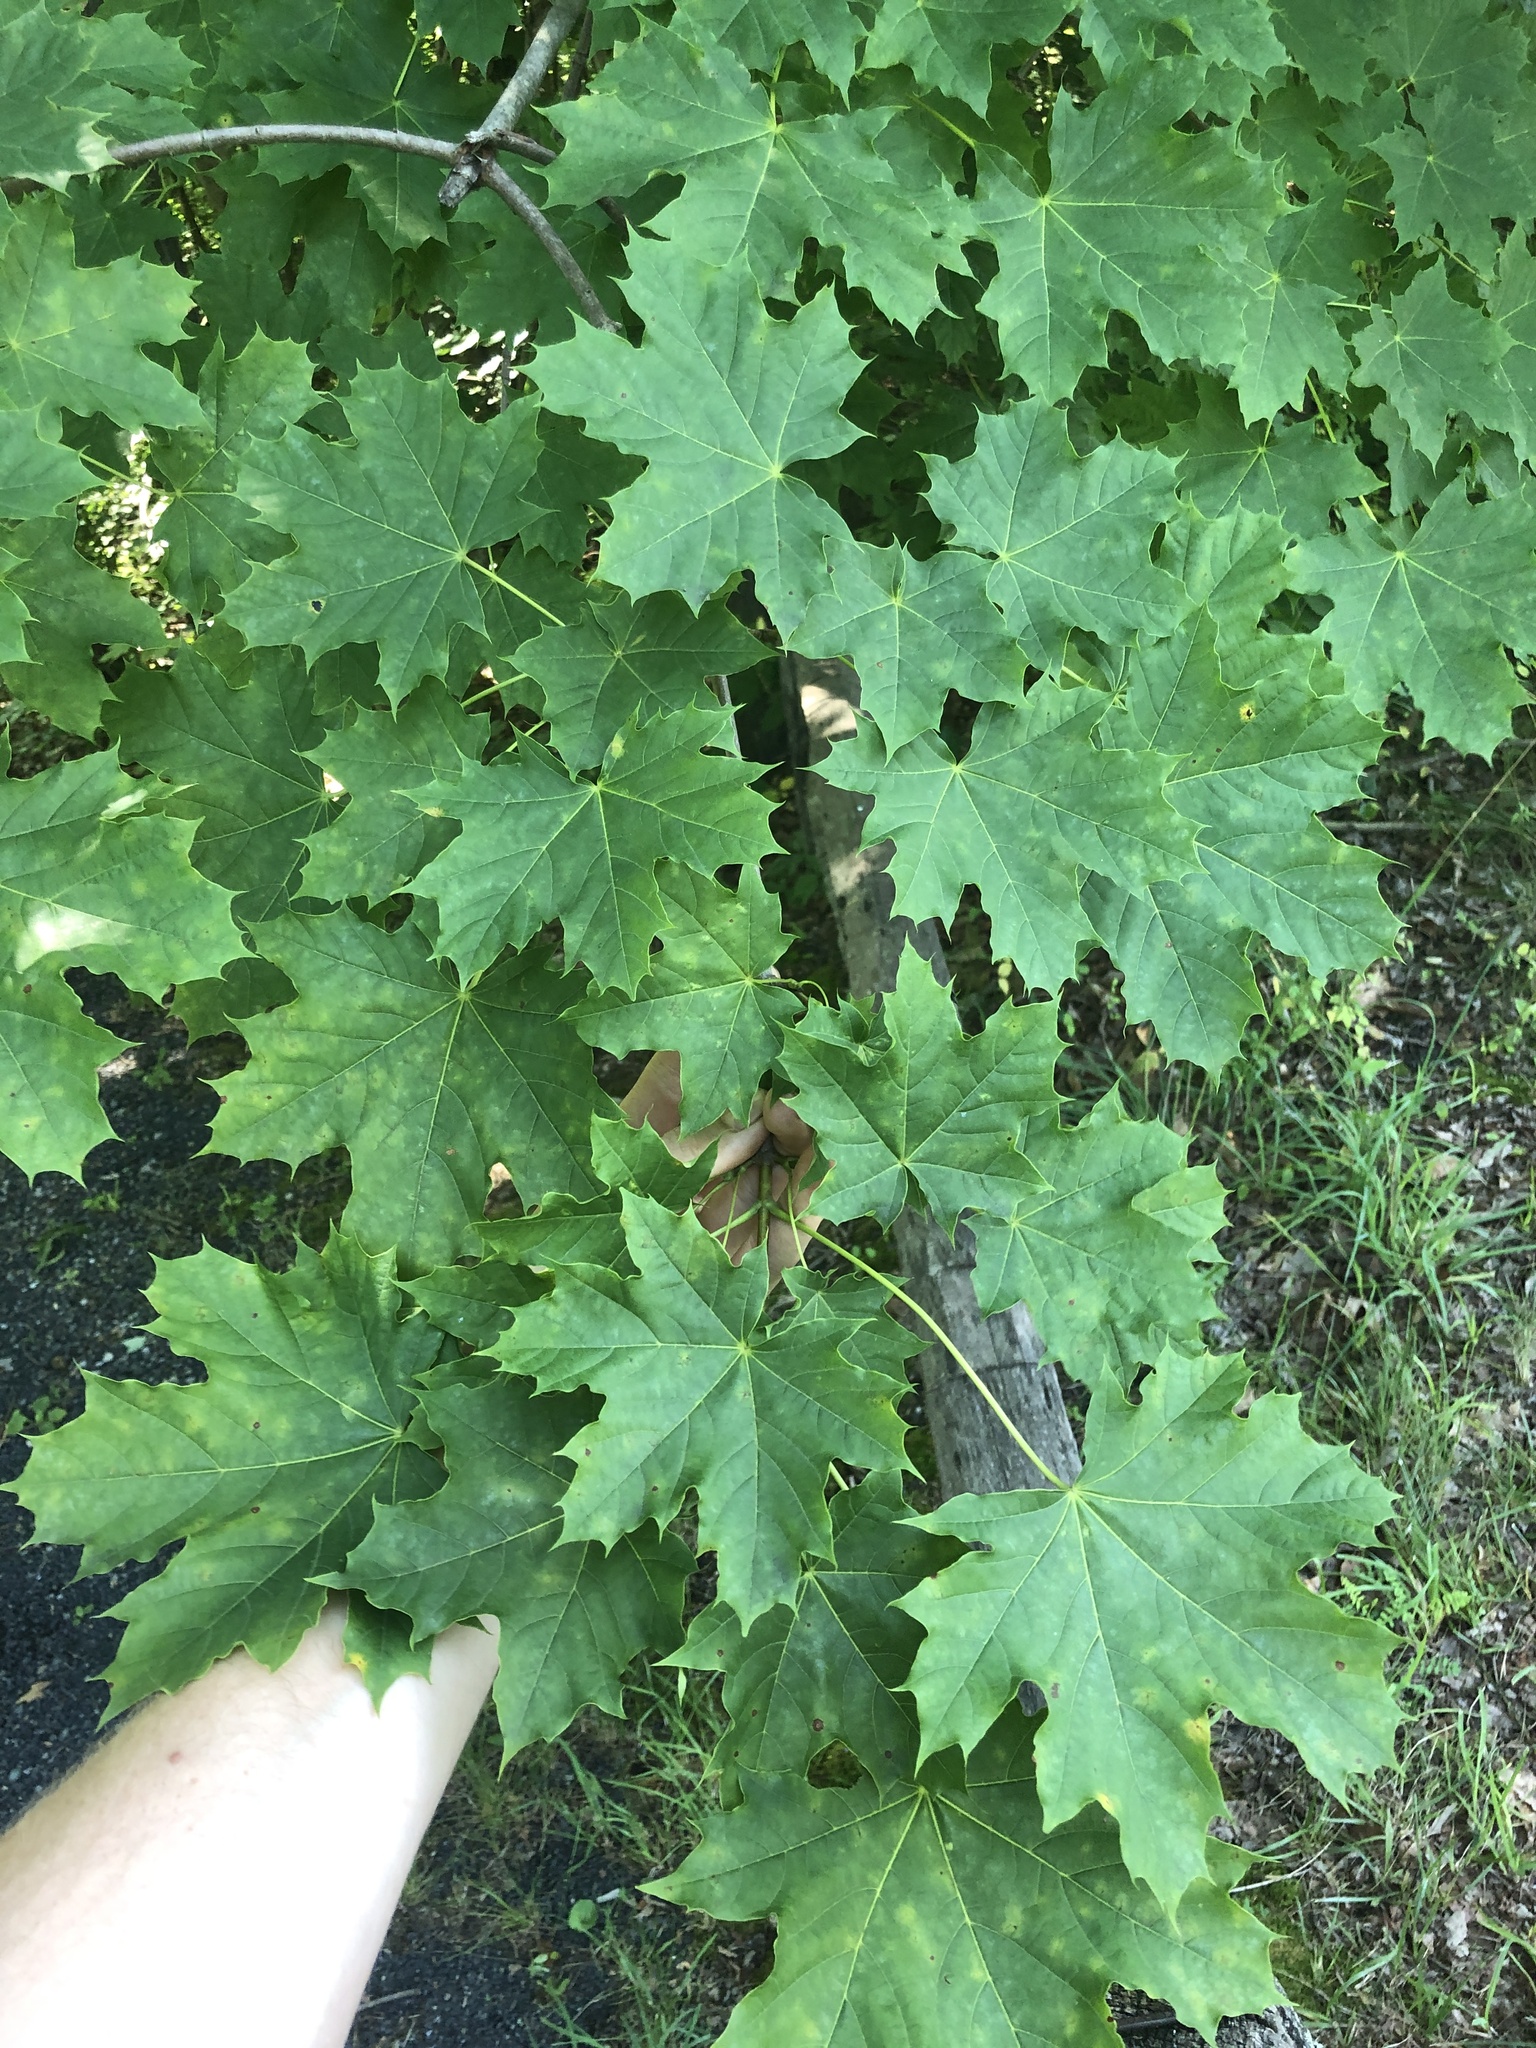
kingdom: Plantae
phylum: Tracheophyta
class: Magnoliopsida
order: Sapindales
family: Sapindaceae
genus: Acer
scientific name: Acer platanoides
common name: Norway maple
